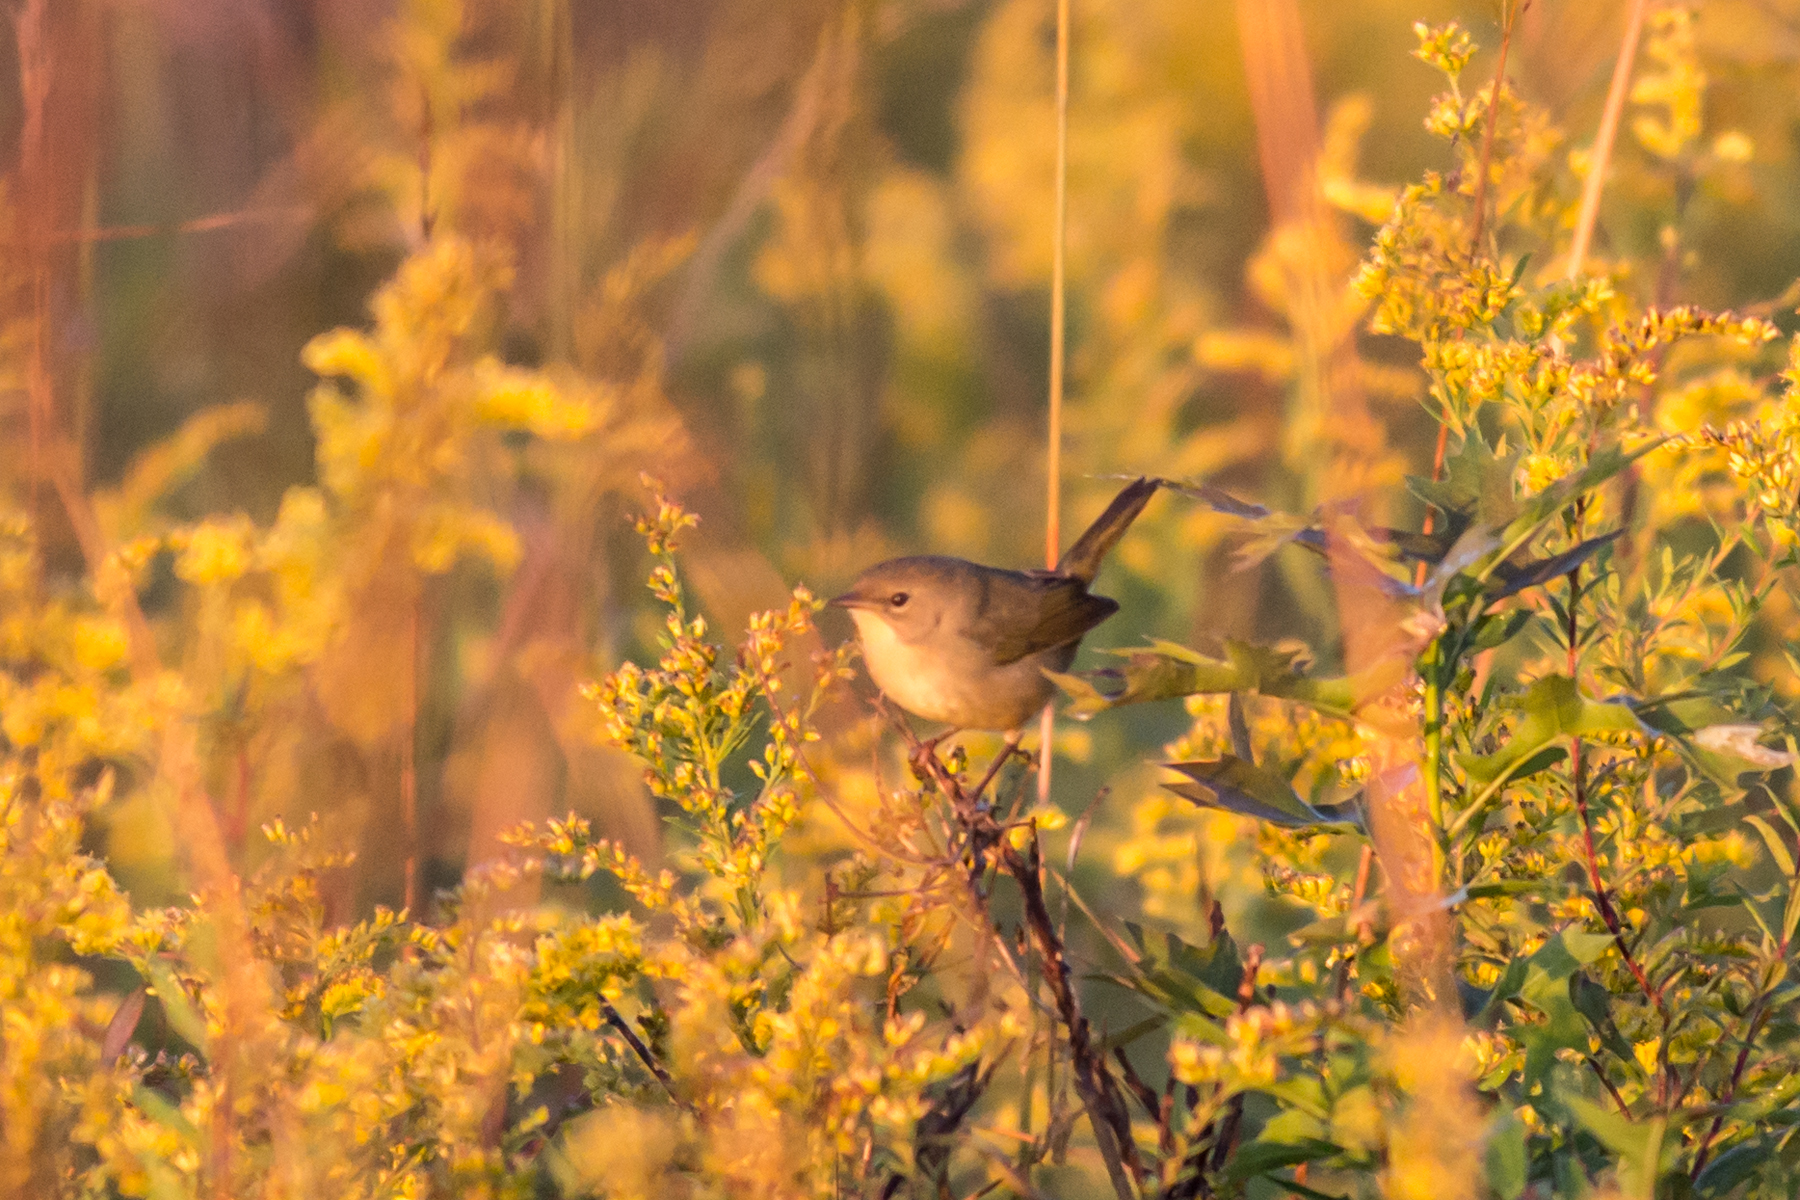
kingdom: Animalia
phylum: Chordata
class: Aves
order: Passeriformes
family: Parulidae
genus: Geothlypis
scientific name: Geothlypis trichas
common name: Common yellowthroat
